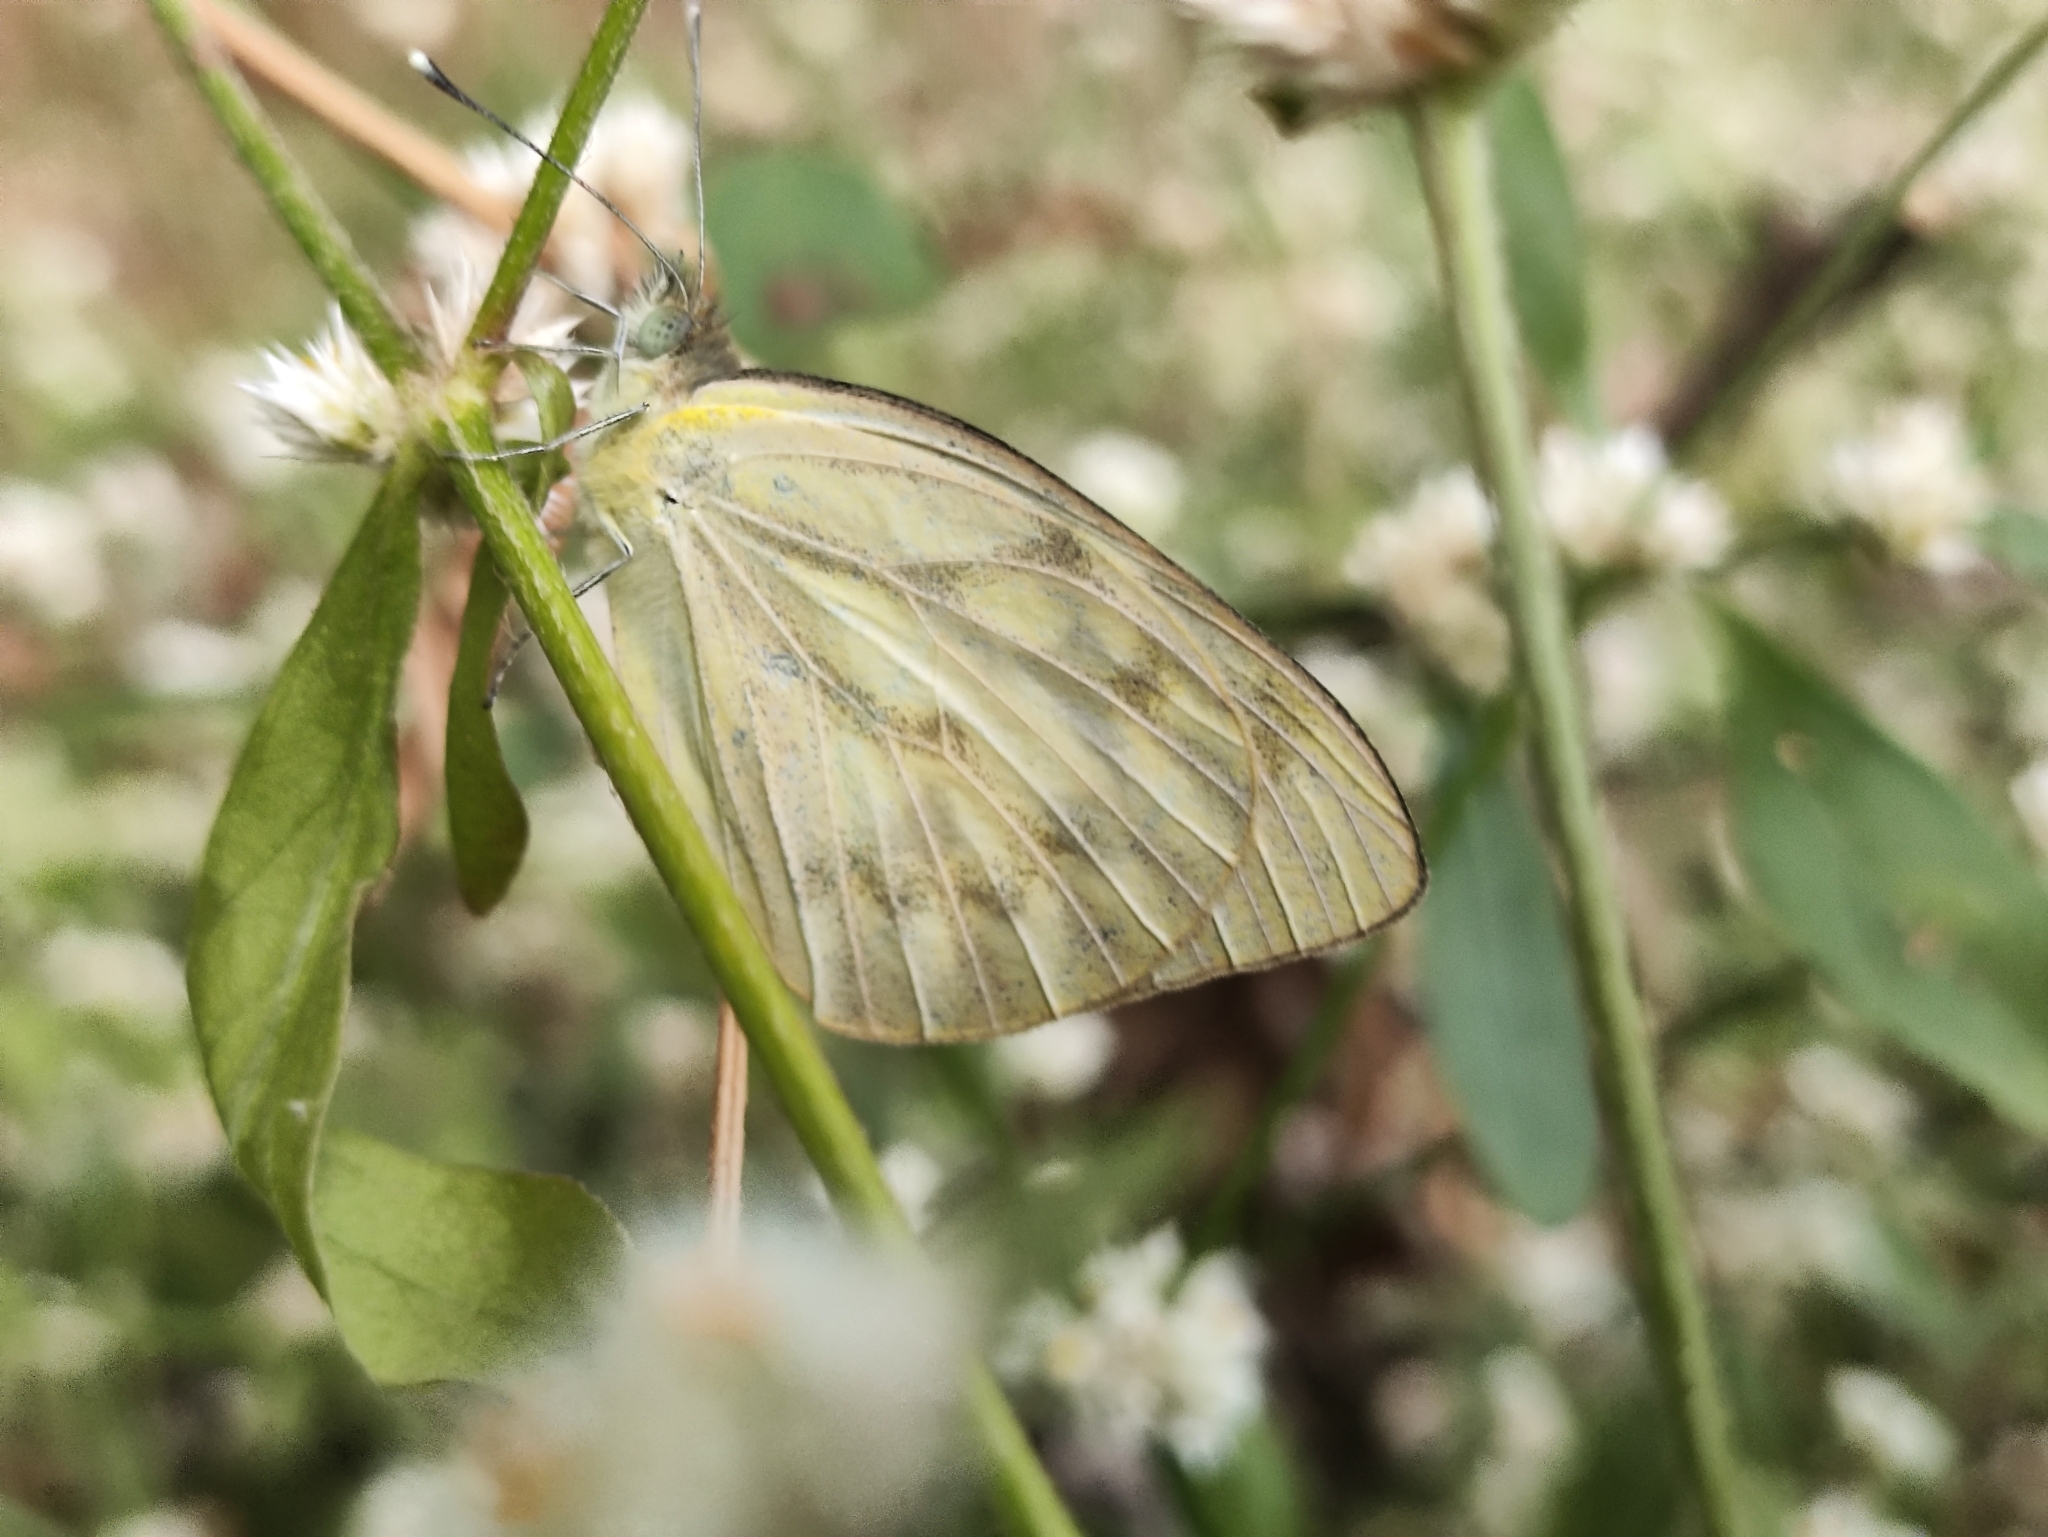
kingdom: Animalia
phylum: Arthropoda
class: Insecta
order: Lepidoptera
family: Pieridae
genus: Cepora
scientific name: Cepora nerissa
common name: Common gull
